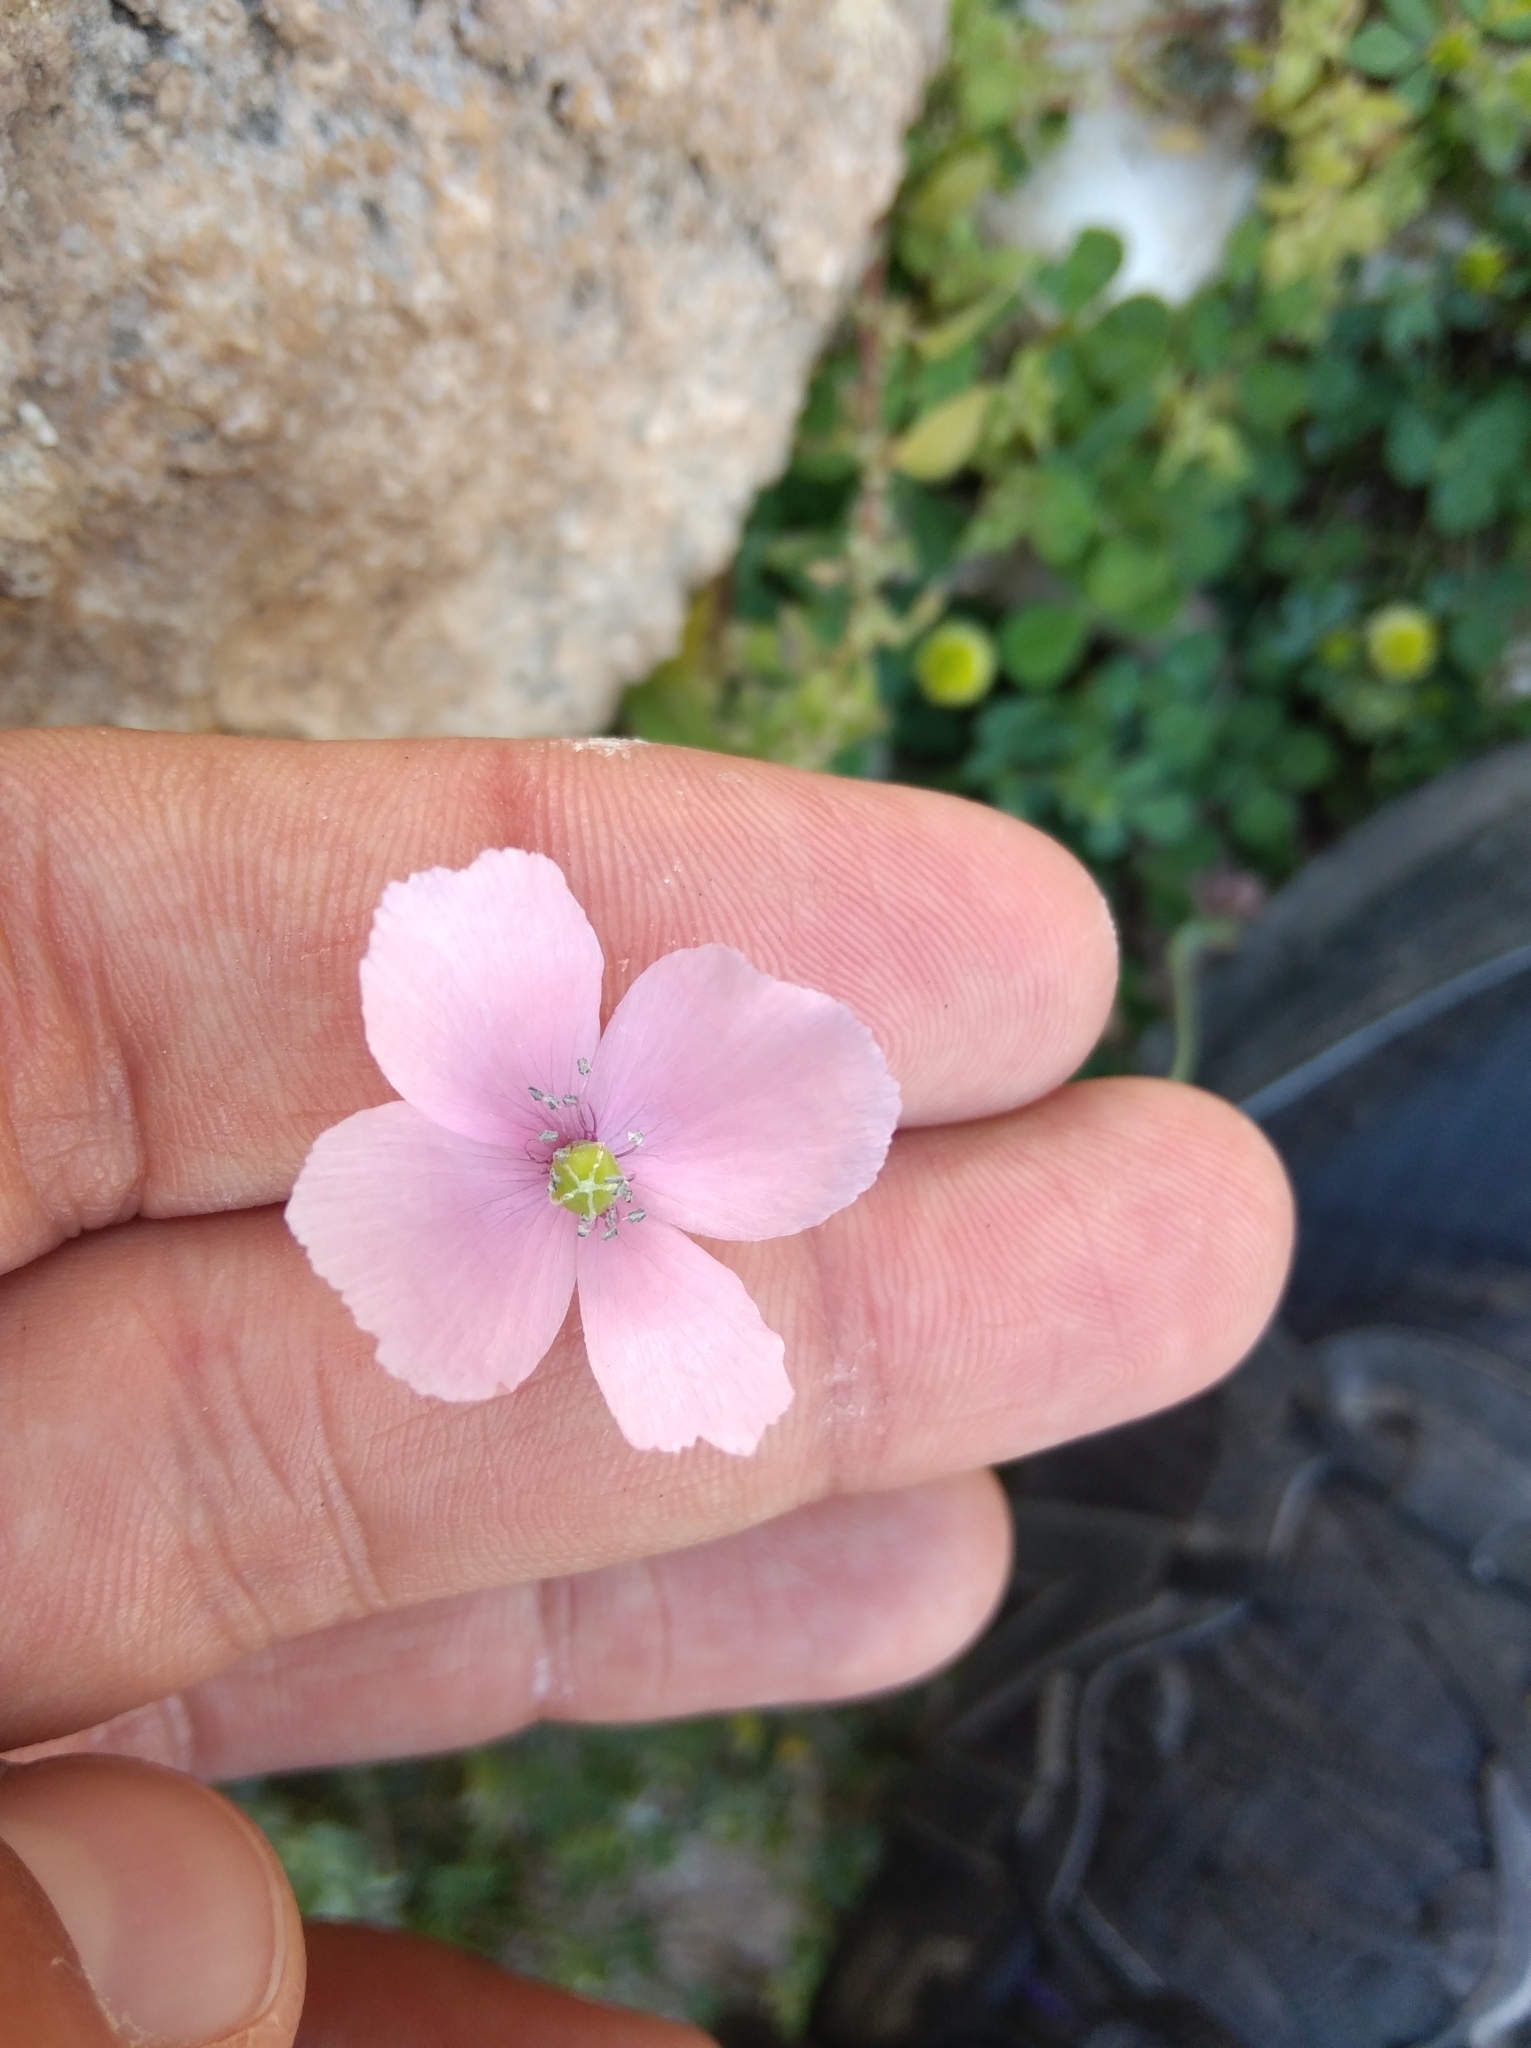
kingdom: Plantae
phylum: Tracheophyta
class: Magnoliopsida
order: Ranunculales
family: Papaveraceae
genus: Papaver
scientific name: Papaver gracile
